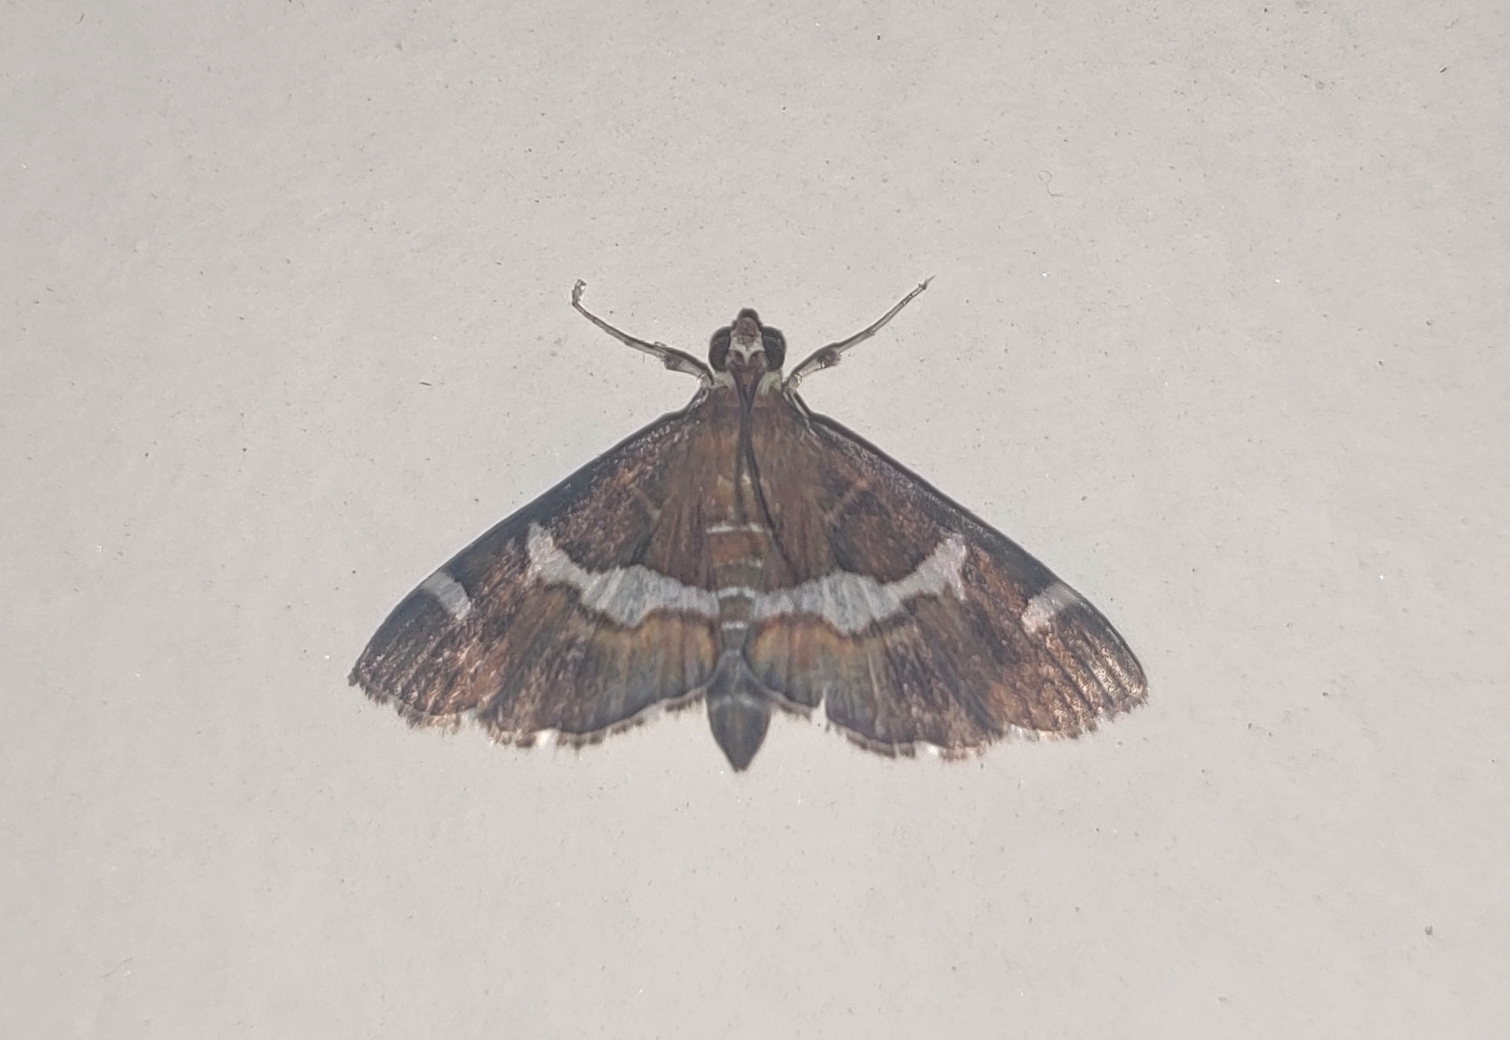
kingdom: Animalia
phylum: Arthropoda
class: Insecta
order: Lepidoptera
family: Crambidae
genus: Spoladea
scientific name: Spoladea recurvalis
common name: Beet webworm moth
